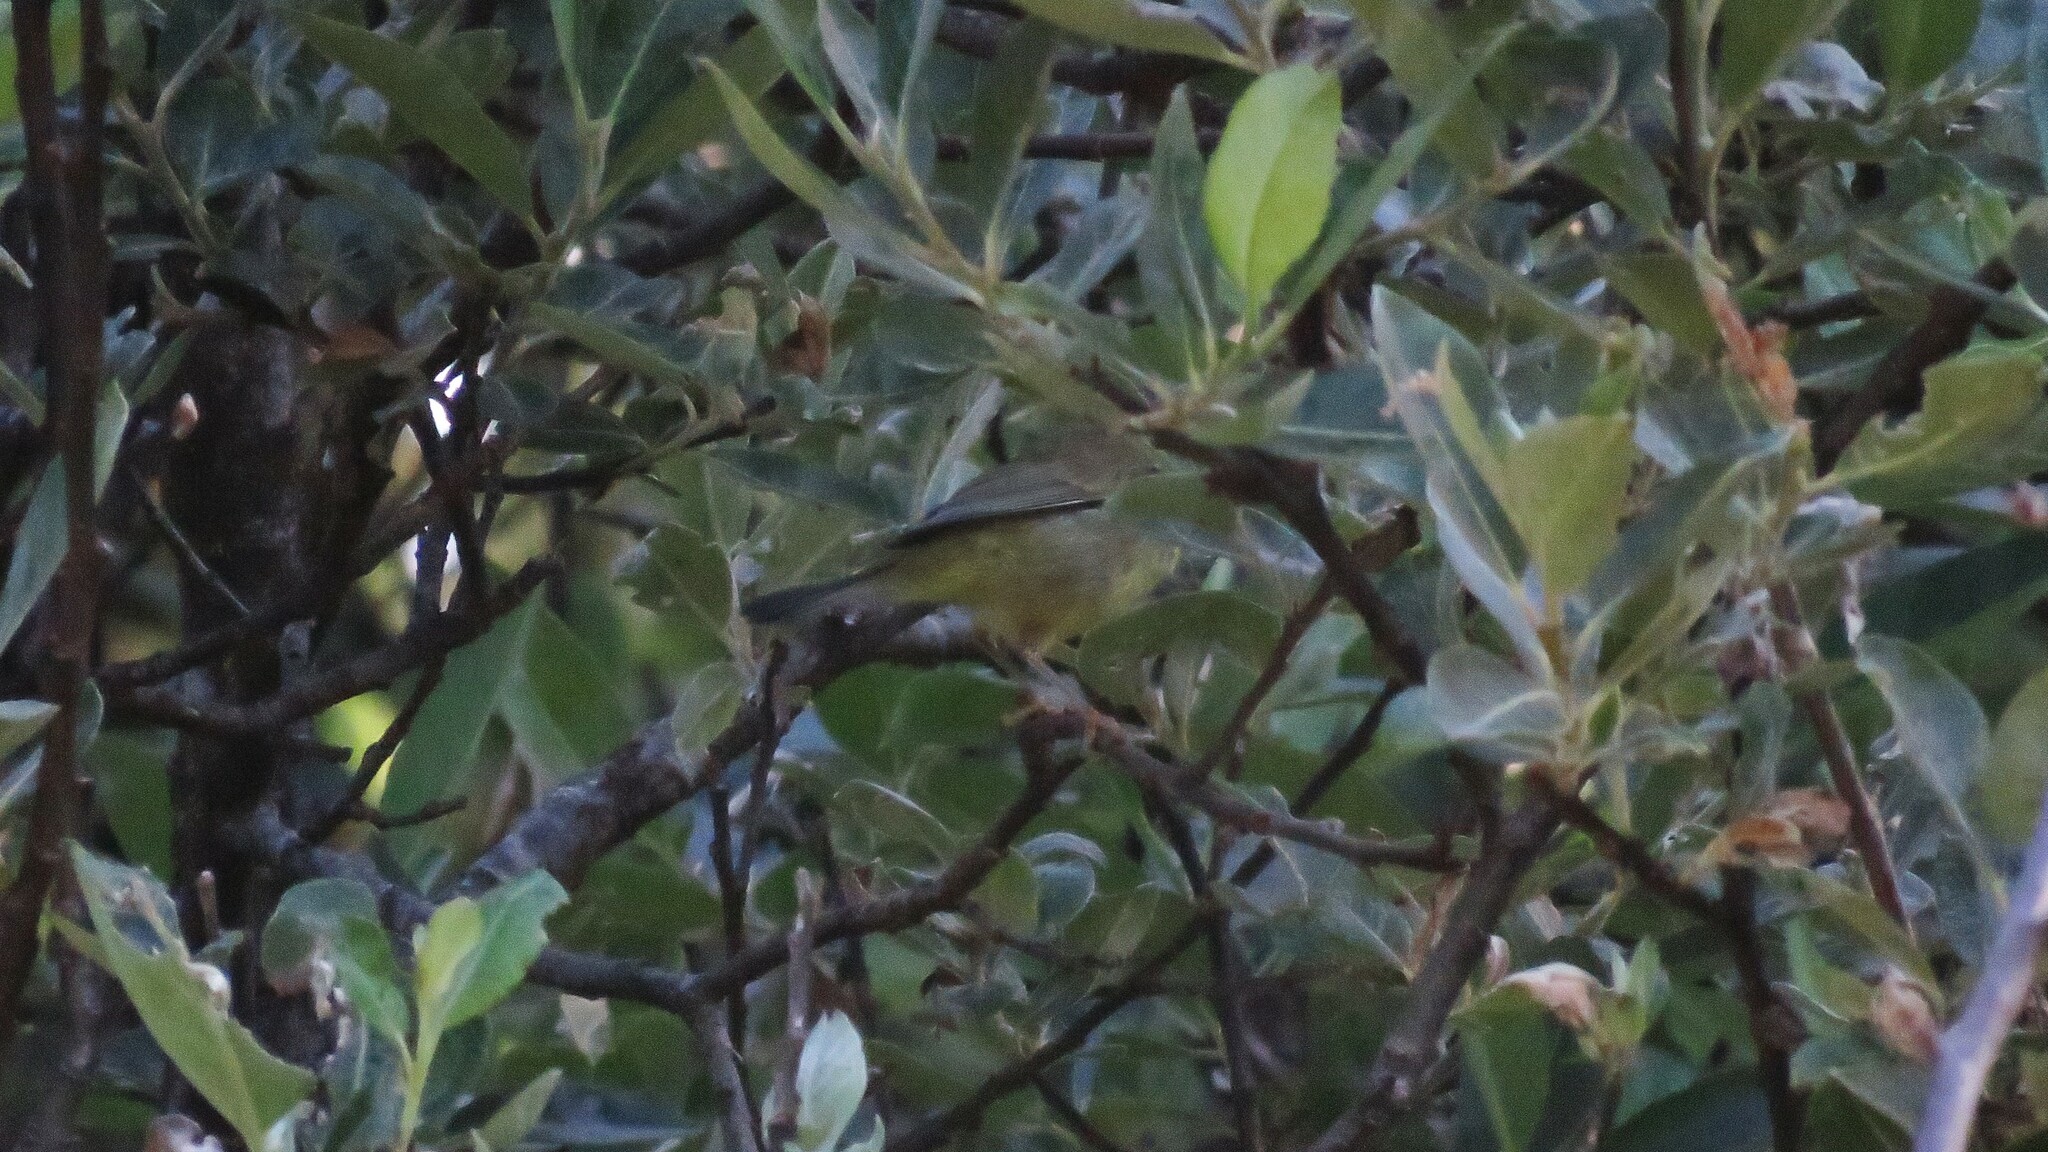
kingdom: Animalia
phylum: Chordata
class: Aves
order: Passeriformes
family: Parulidae
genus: Leiothlypis
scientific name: Leiothlypis celata
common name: Orange-crowned warbler
